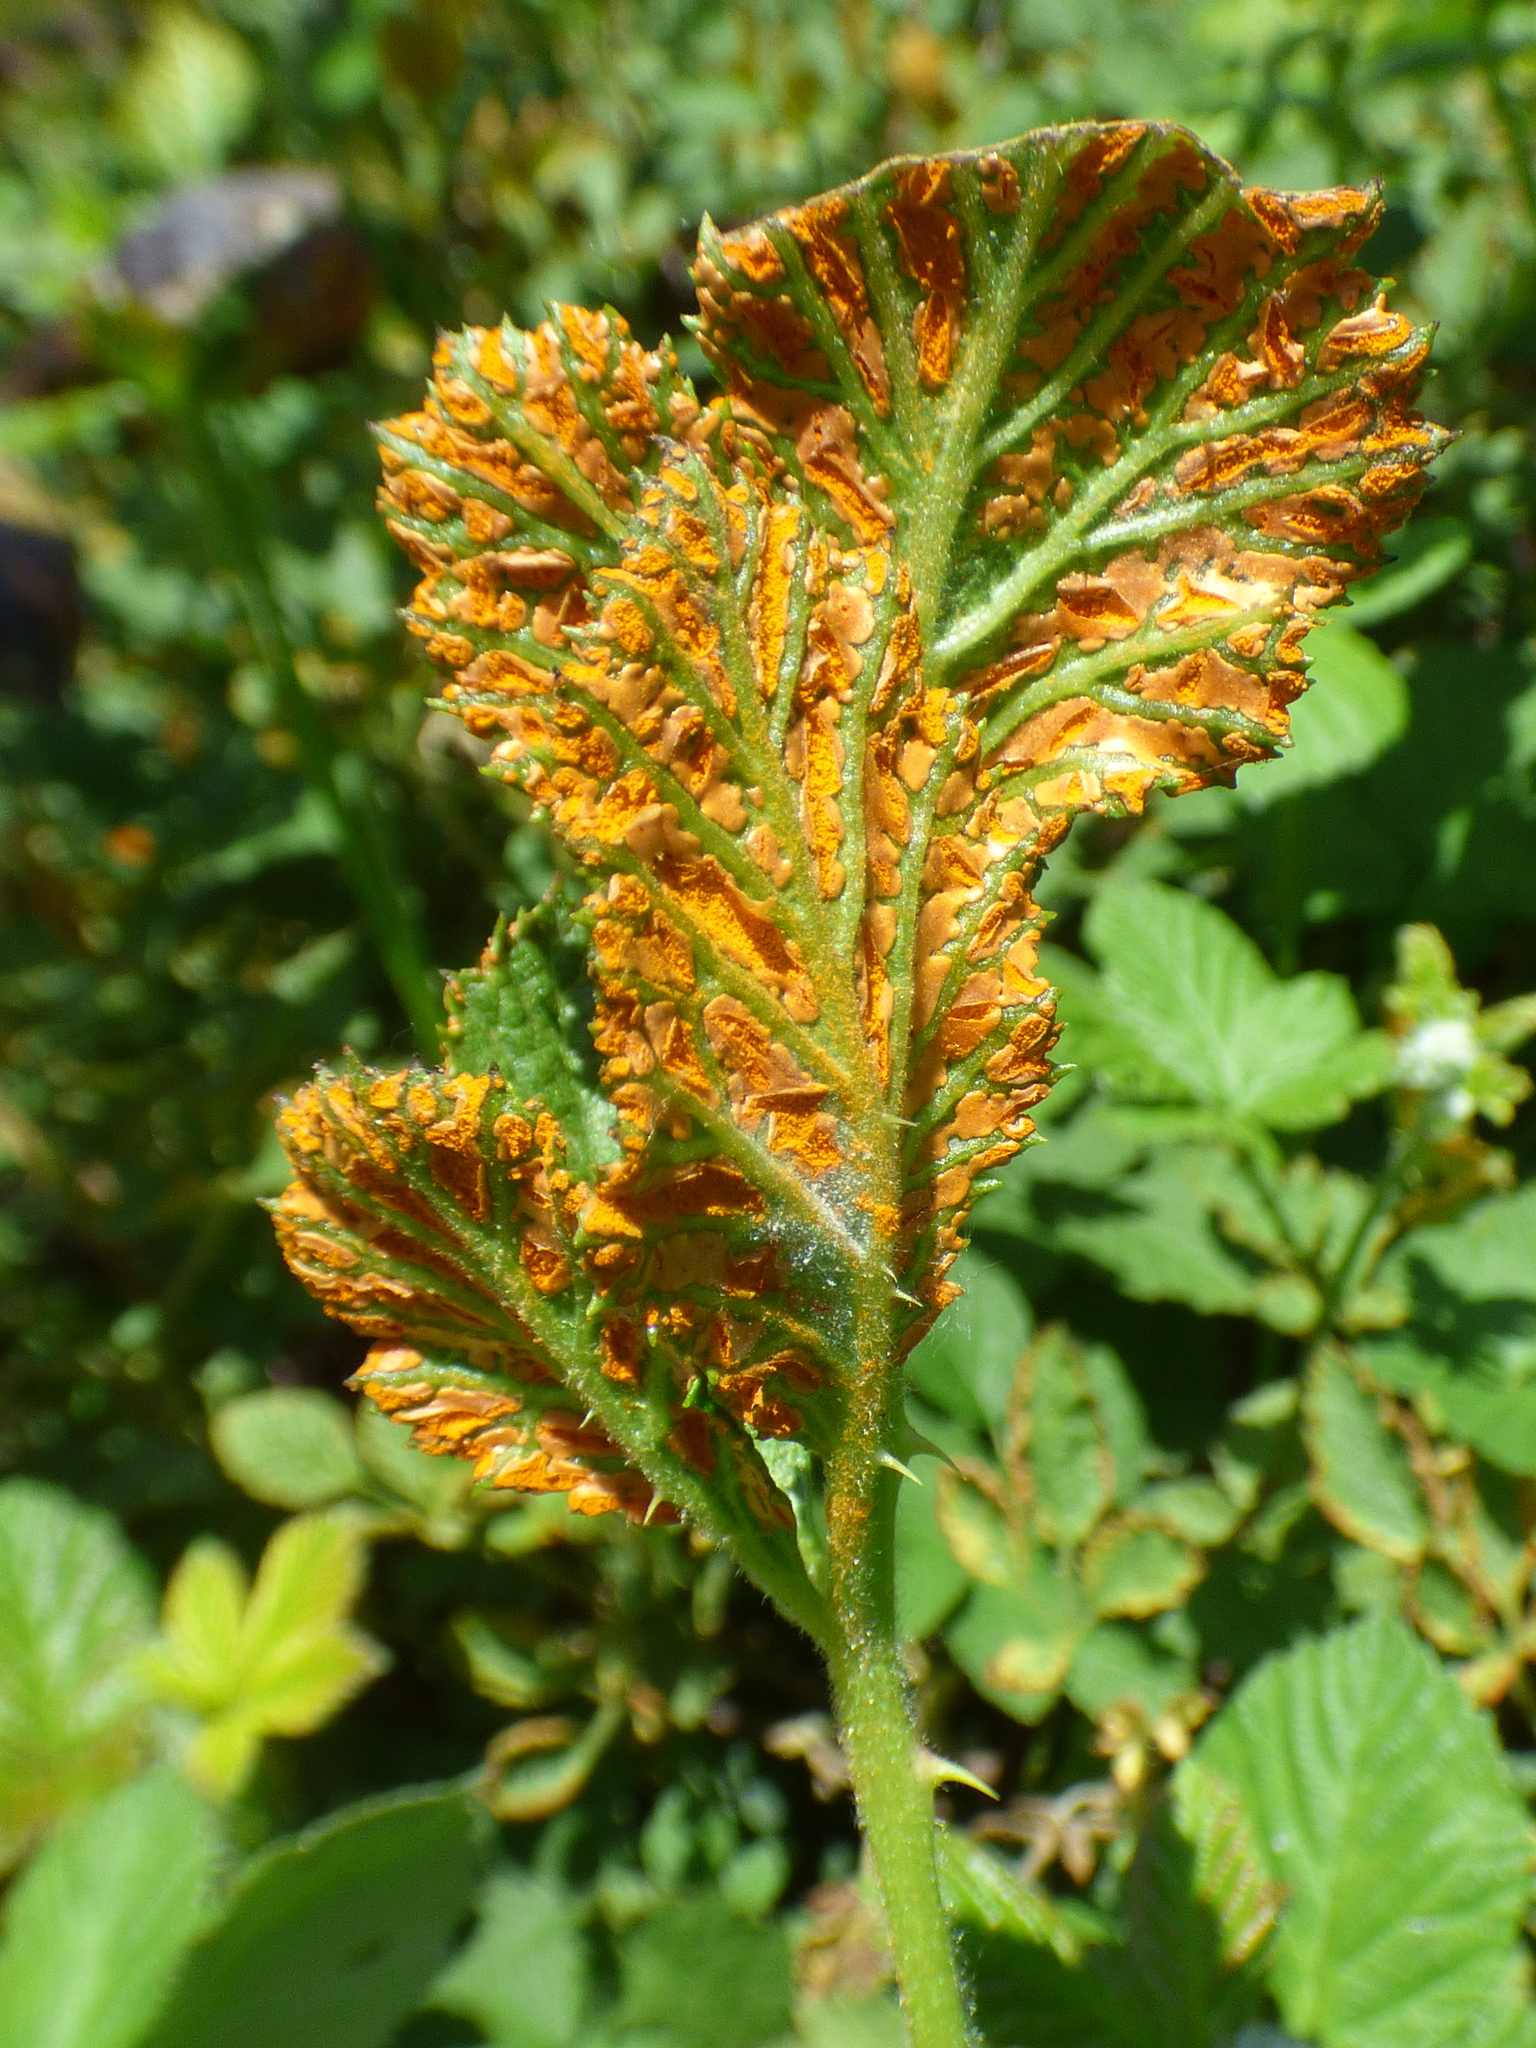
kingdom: Fungi
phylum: Basidiomycota
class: Pucciniomycetes
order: Pucciniales
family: Phragmidiaceae
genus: Arthuriomyces
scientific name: Arthuriomyces peckianus
